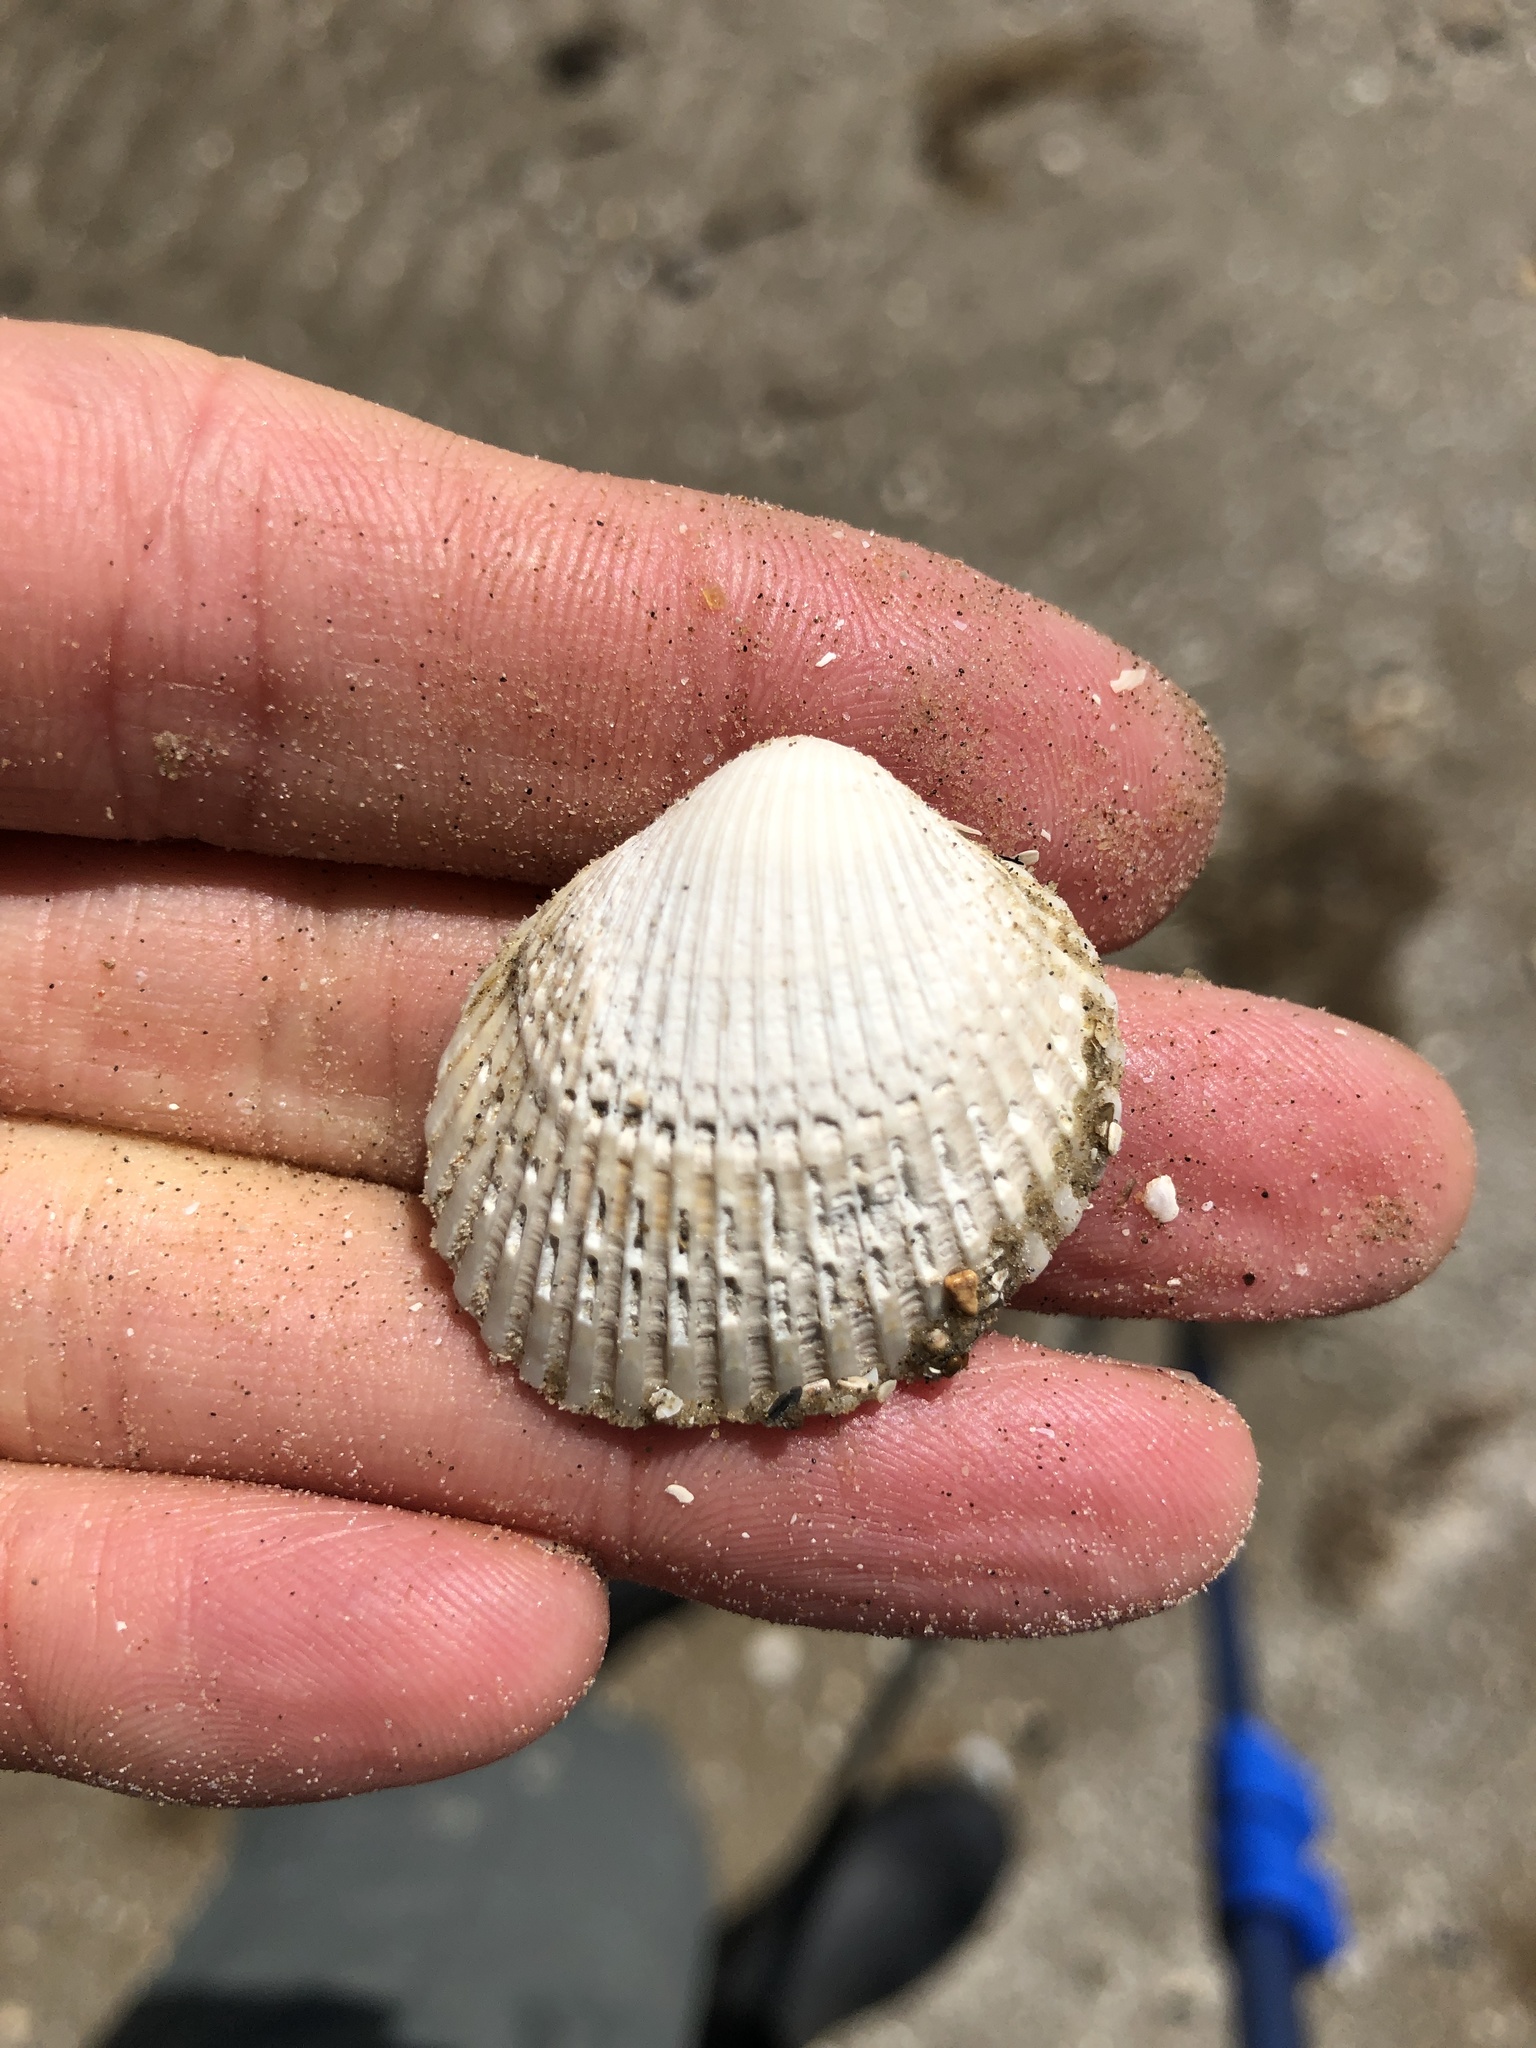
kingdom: Animalia
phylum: Mollusca
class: Bivalvia
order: Arcida
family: Arcidae
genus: Lunarca
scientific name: Lunarca ovalis
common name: Blood ark
